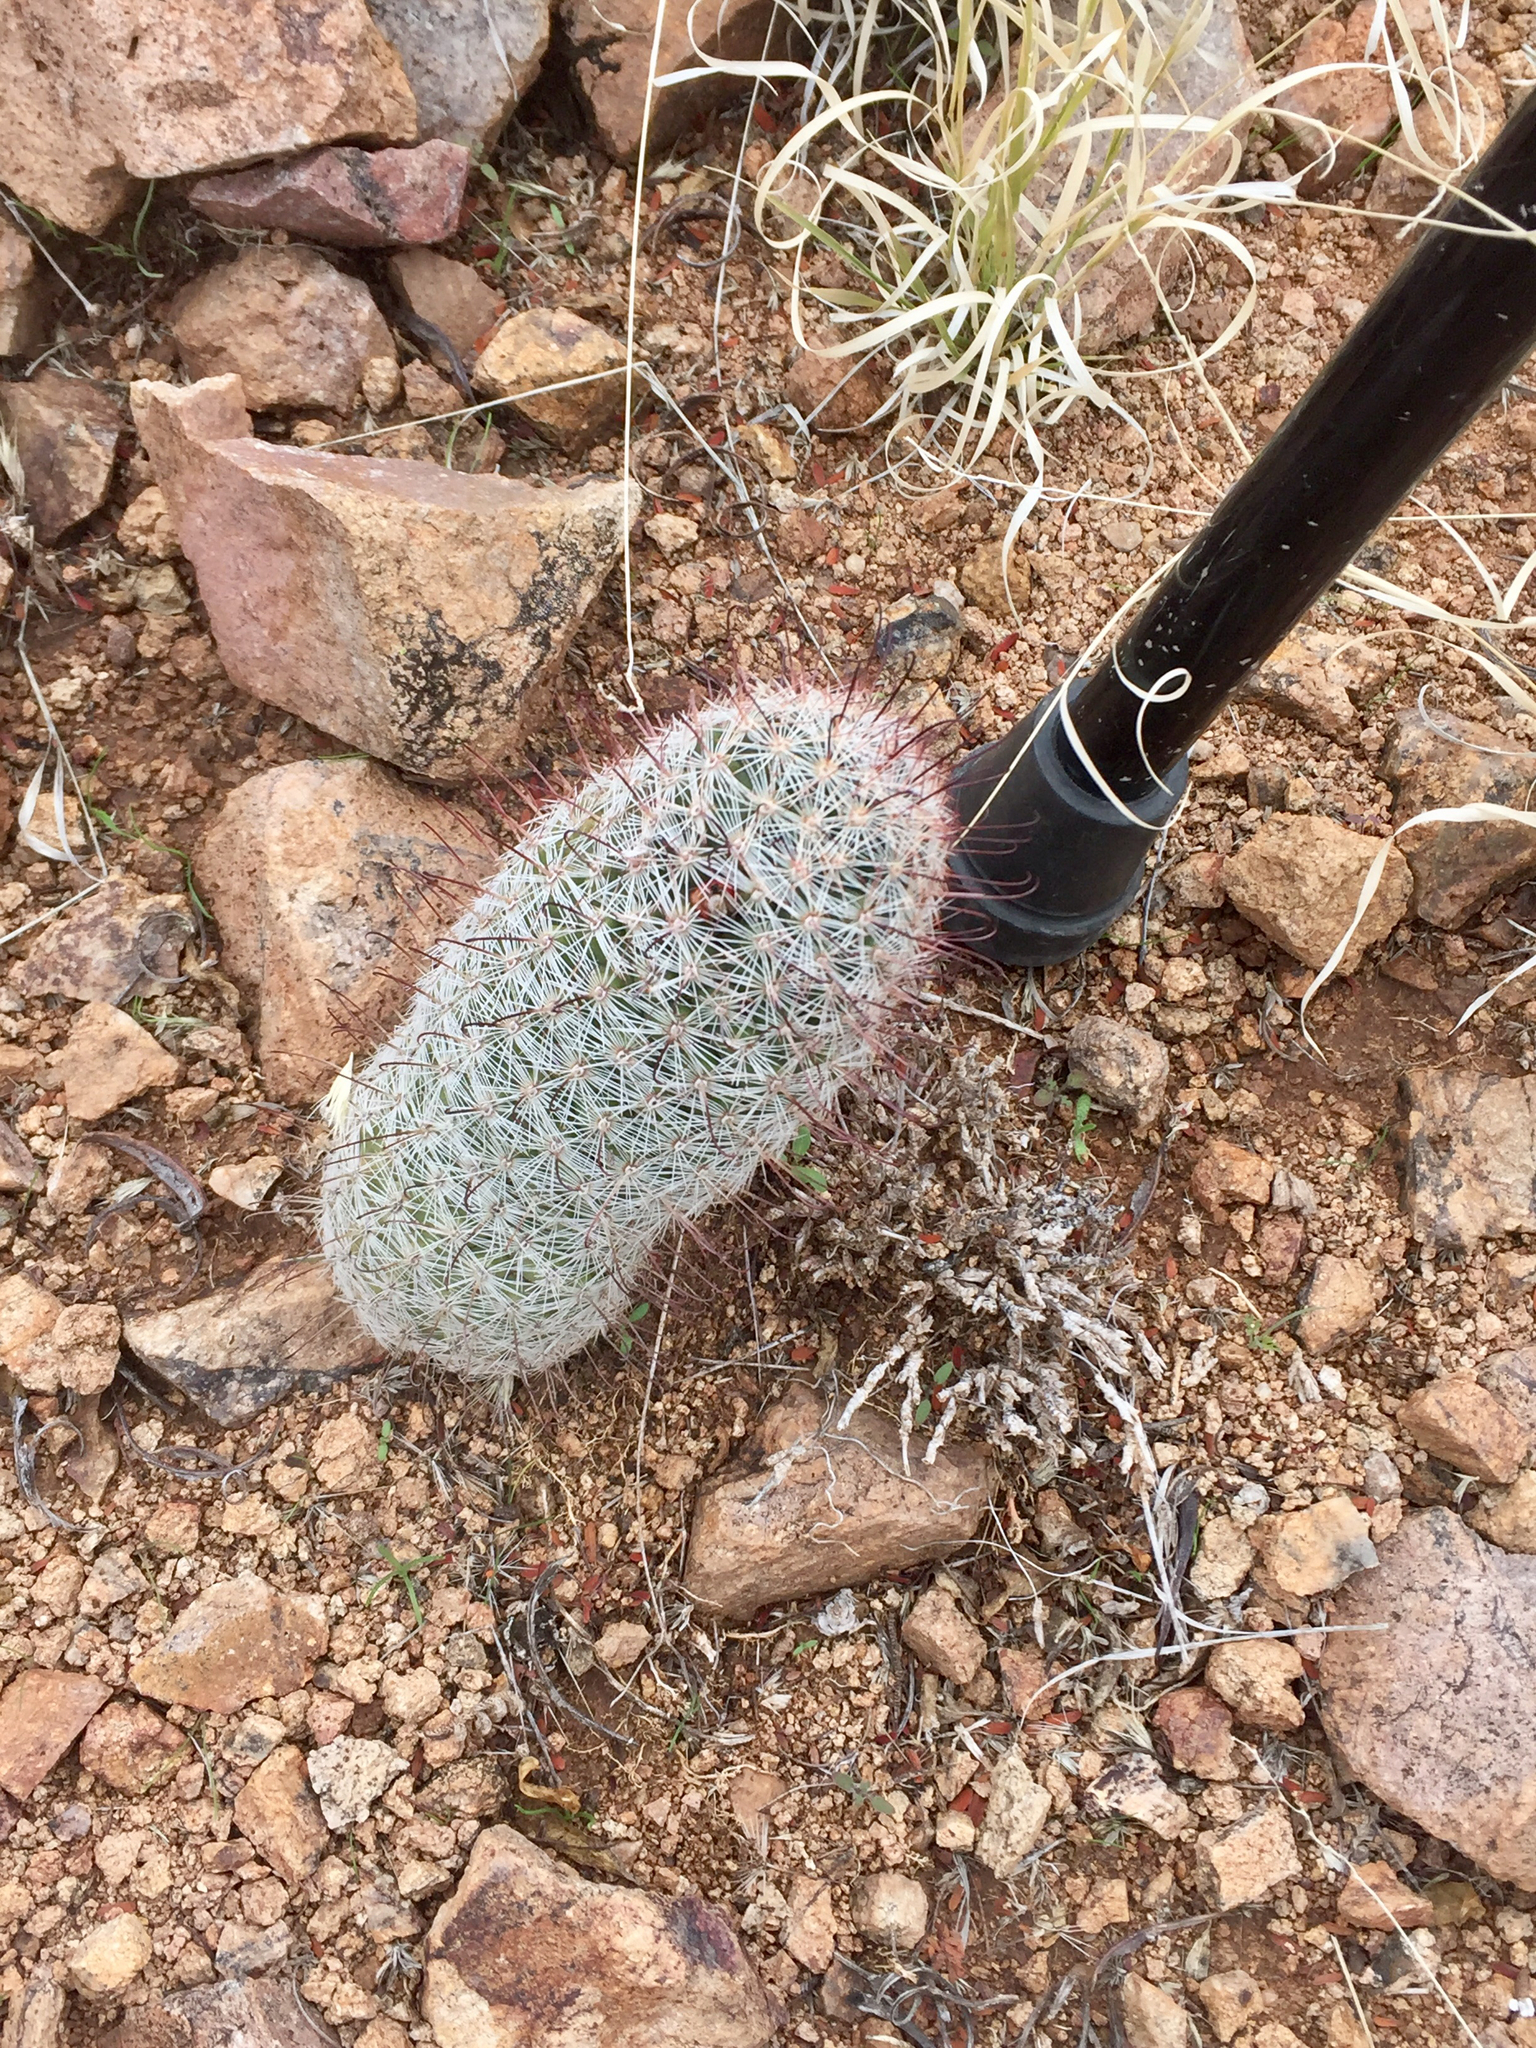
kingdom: Plantae
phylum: Tracheophyta
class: Magnoliopsida
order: Caryophyllales
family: Cactaceae
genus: Cochemiea
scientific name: Cochemiea grahamii
